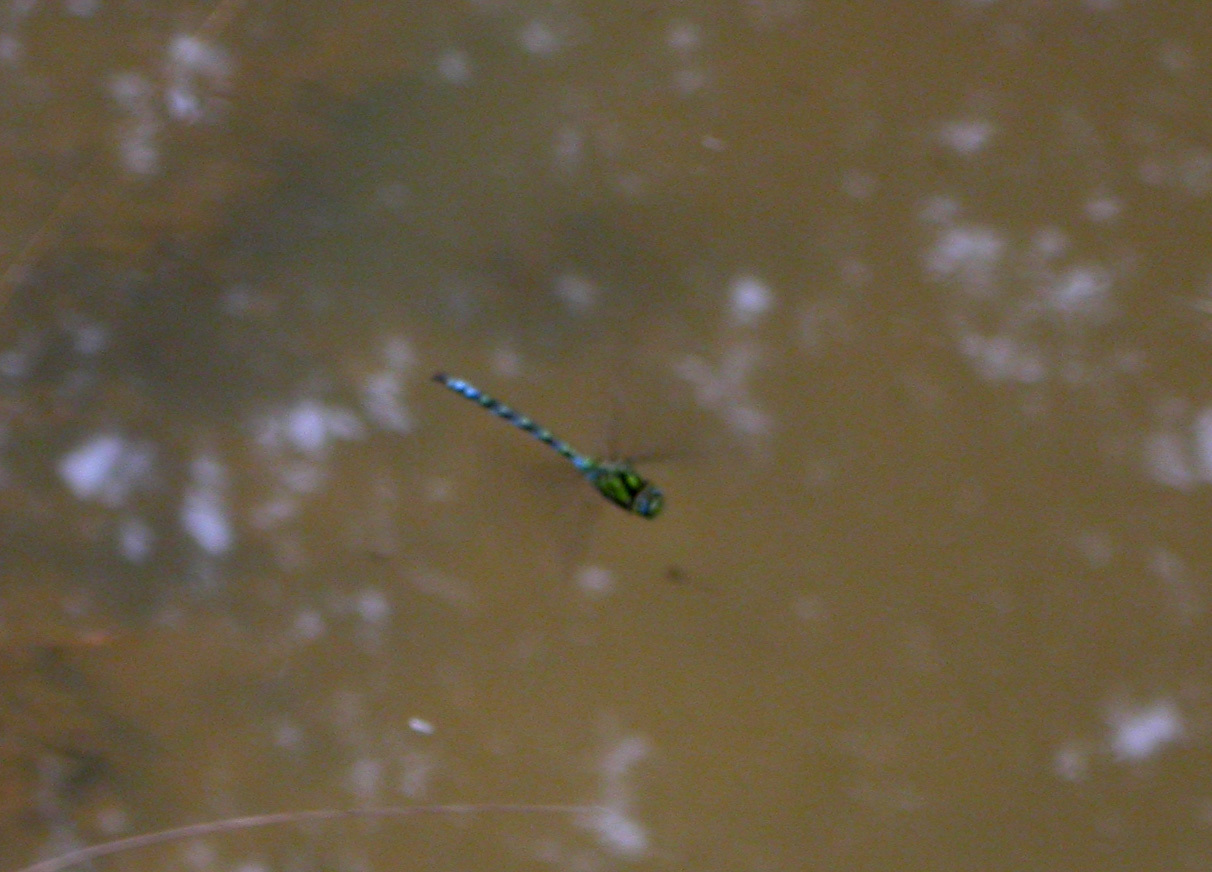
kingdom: Animalia
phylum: Arthropoda
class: Insecta
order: Odonata
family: Aeshnidae
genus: Aeshna
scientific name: Aeshna cyanea
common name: Southern hawker
